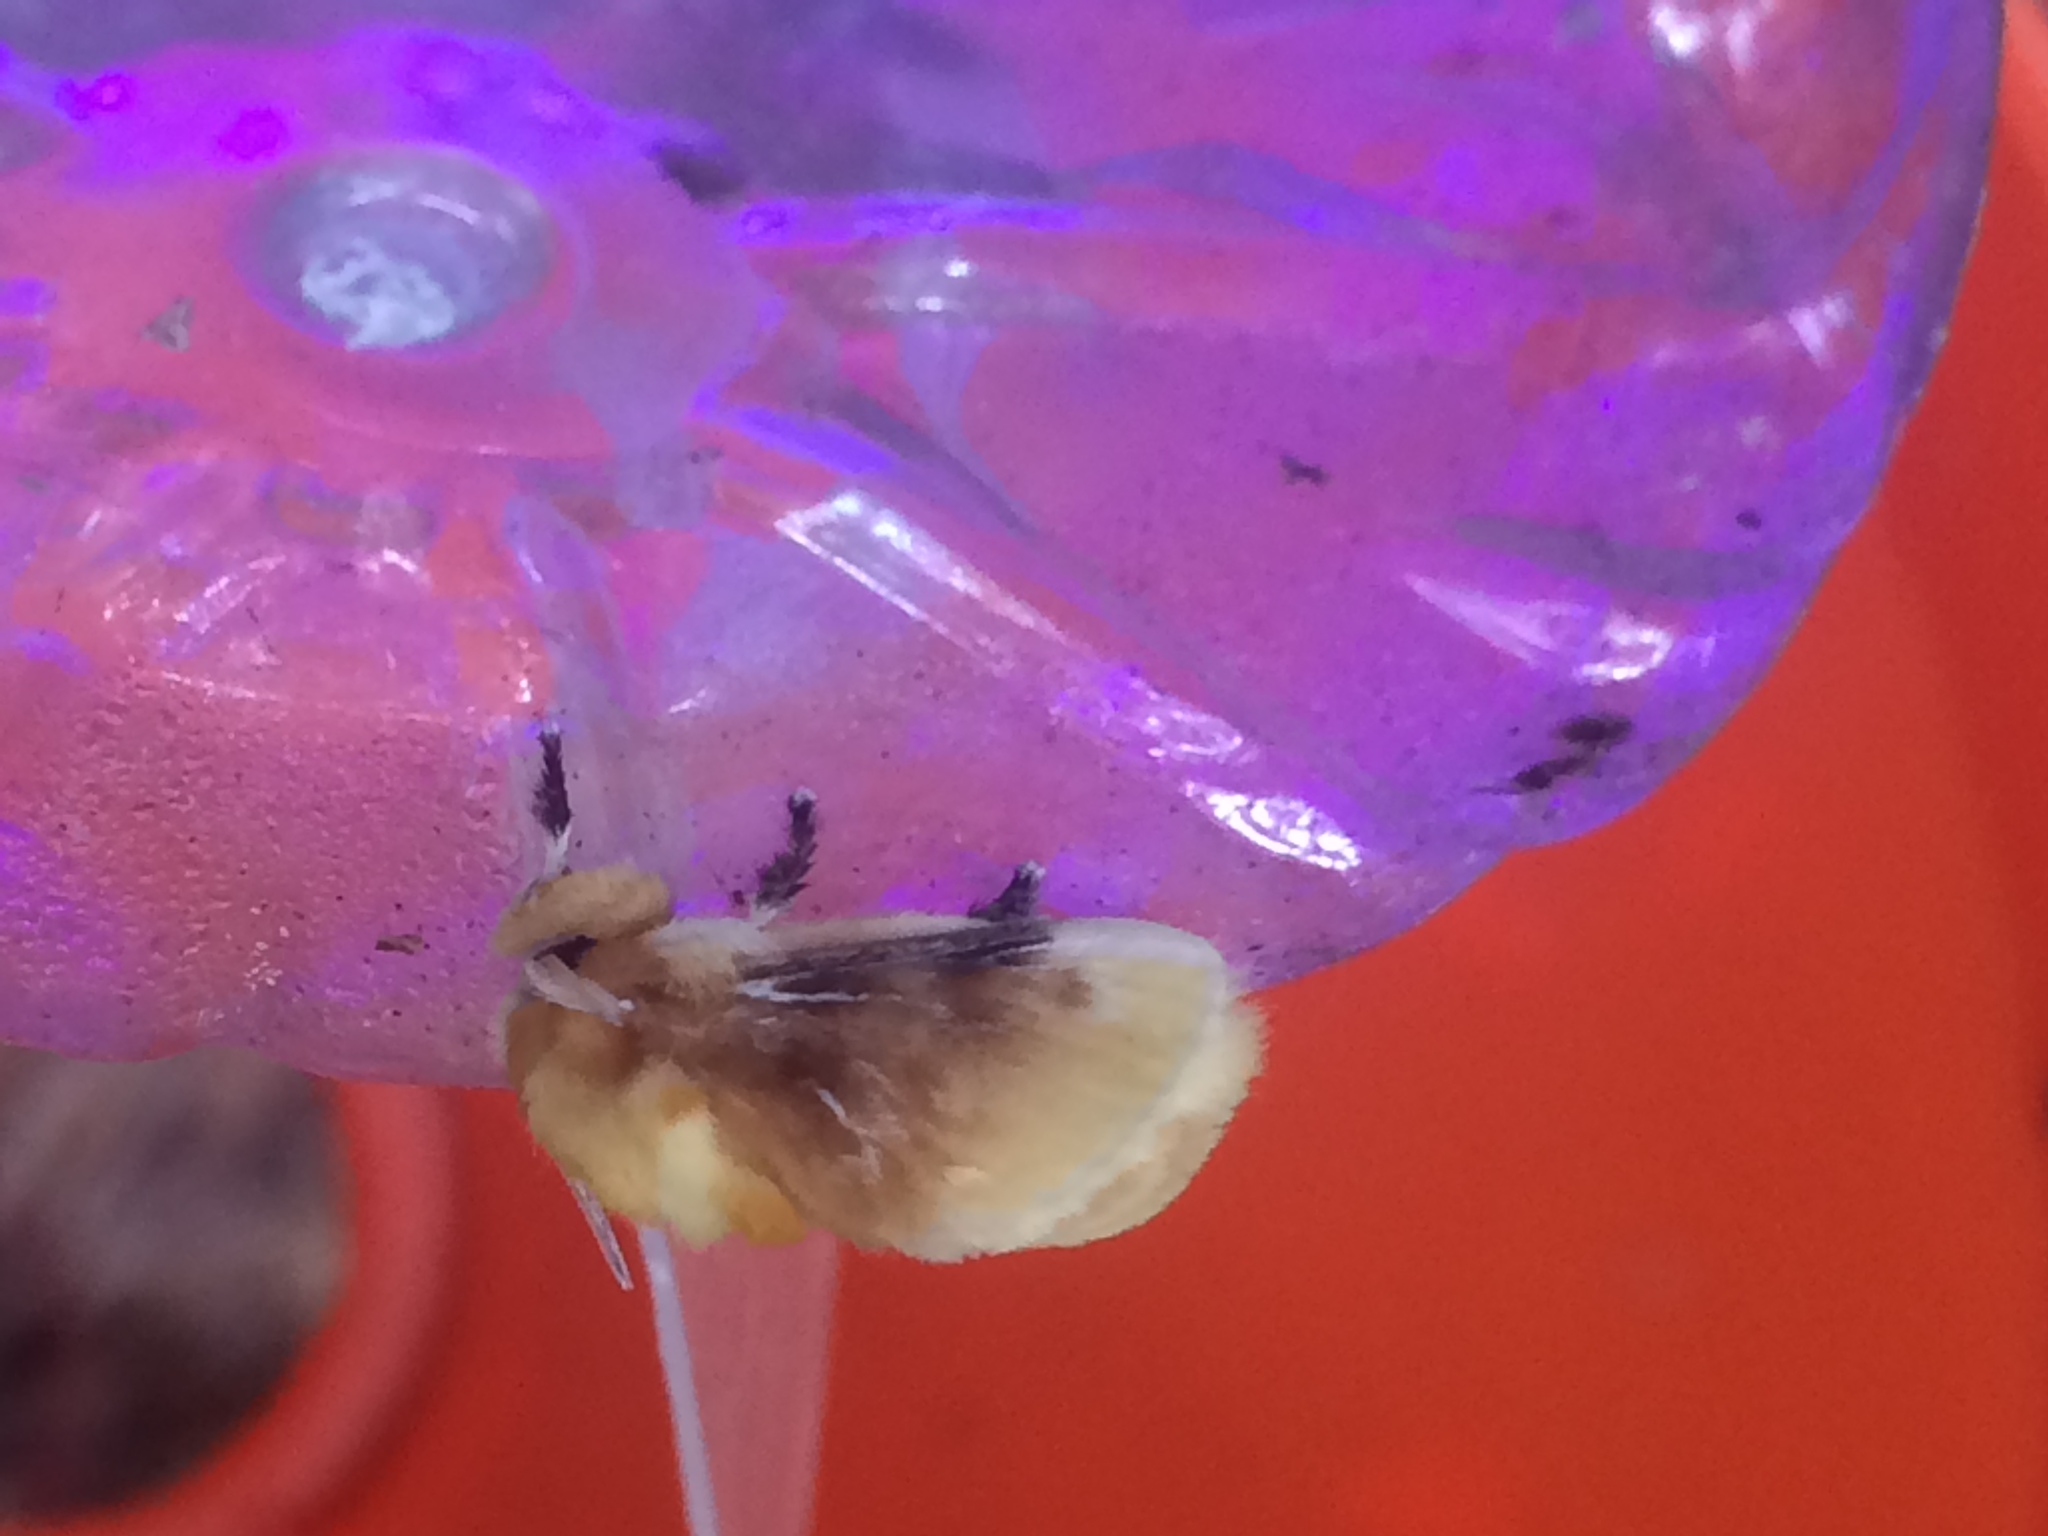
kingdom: Animalia
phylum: Arthropoda
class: Insecta
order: Lepidoptera
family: Megalopygidae
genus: Megalopyge
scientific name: Megalopyge opercularis
